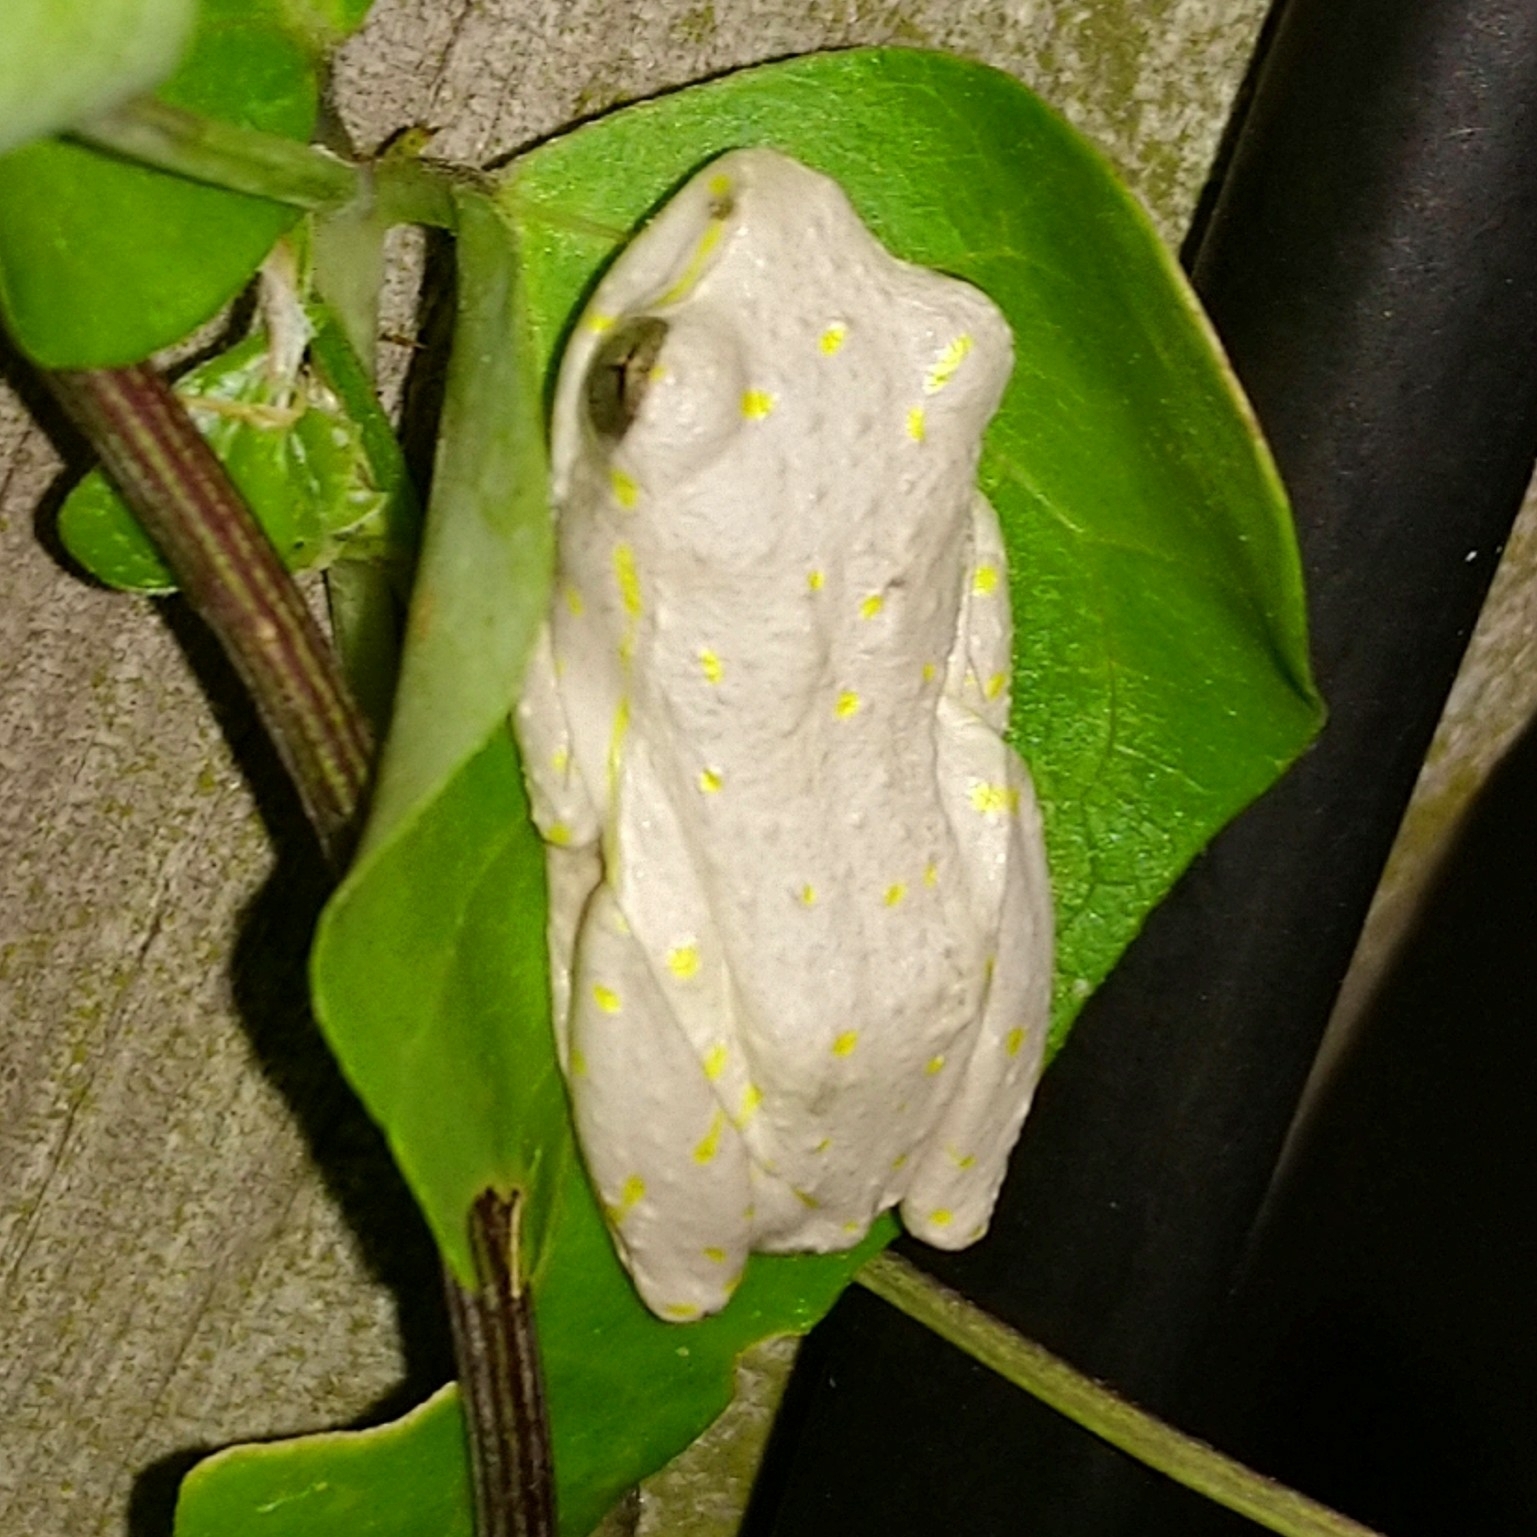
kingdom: Animalia
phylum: Chordata
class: Amphibia
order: Anura
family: Hyperoliidae
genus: Hyperolius
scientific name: Hyperolius marmoratus
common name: Painted reed frog
